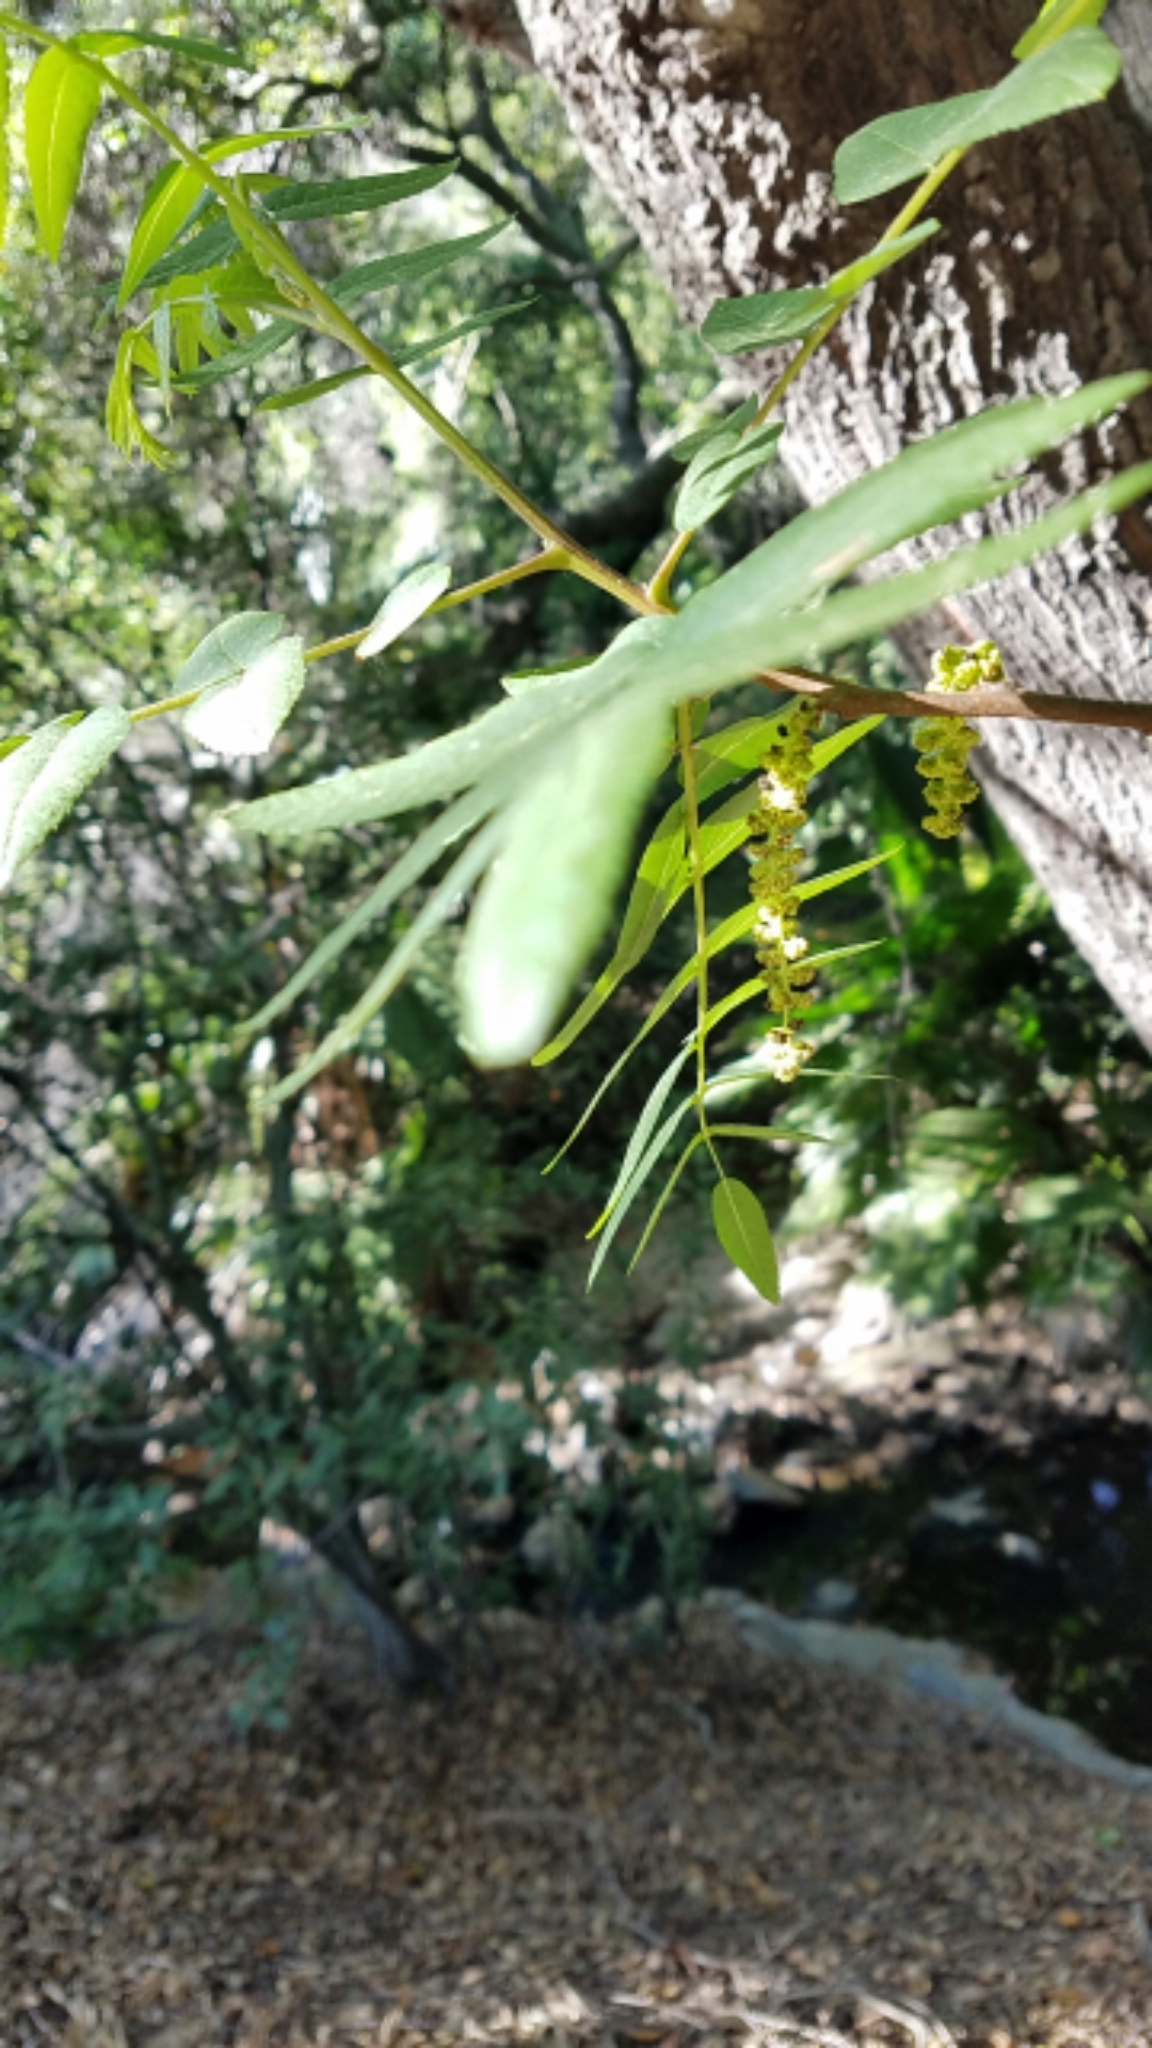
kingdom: Plantae
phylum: Tracheophyta
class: Magnoliopsida
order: Fagales
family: Juglandaceae
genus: Juglans
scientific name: Juglans californica
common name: Southern california black walnut
